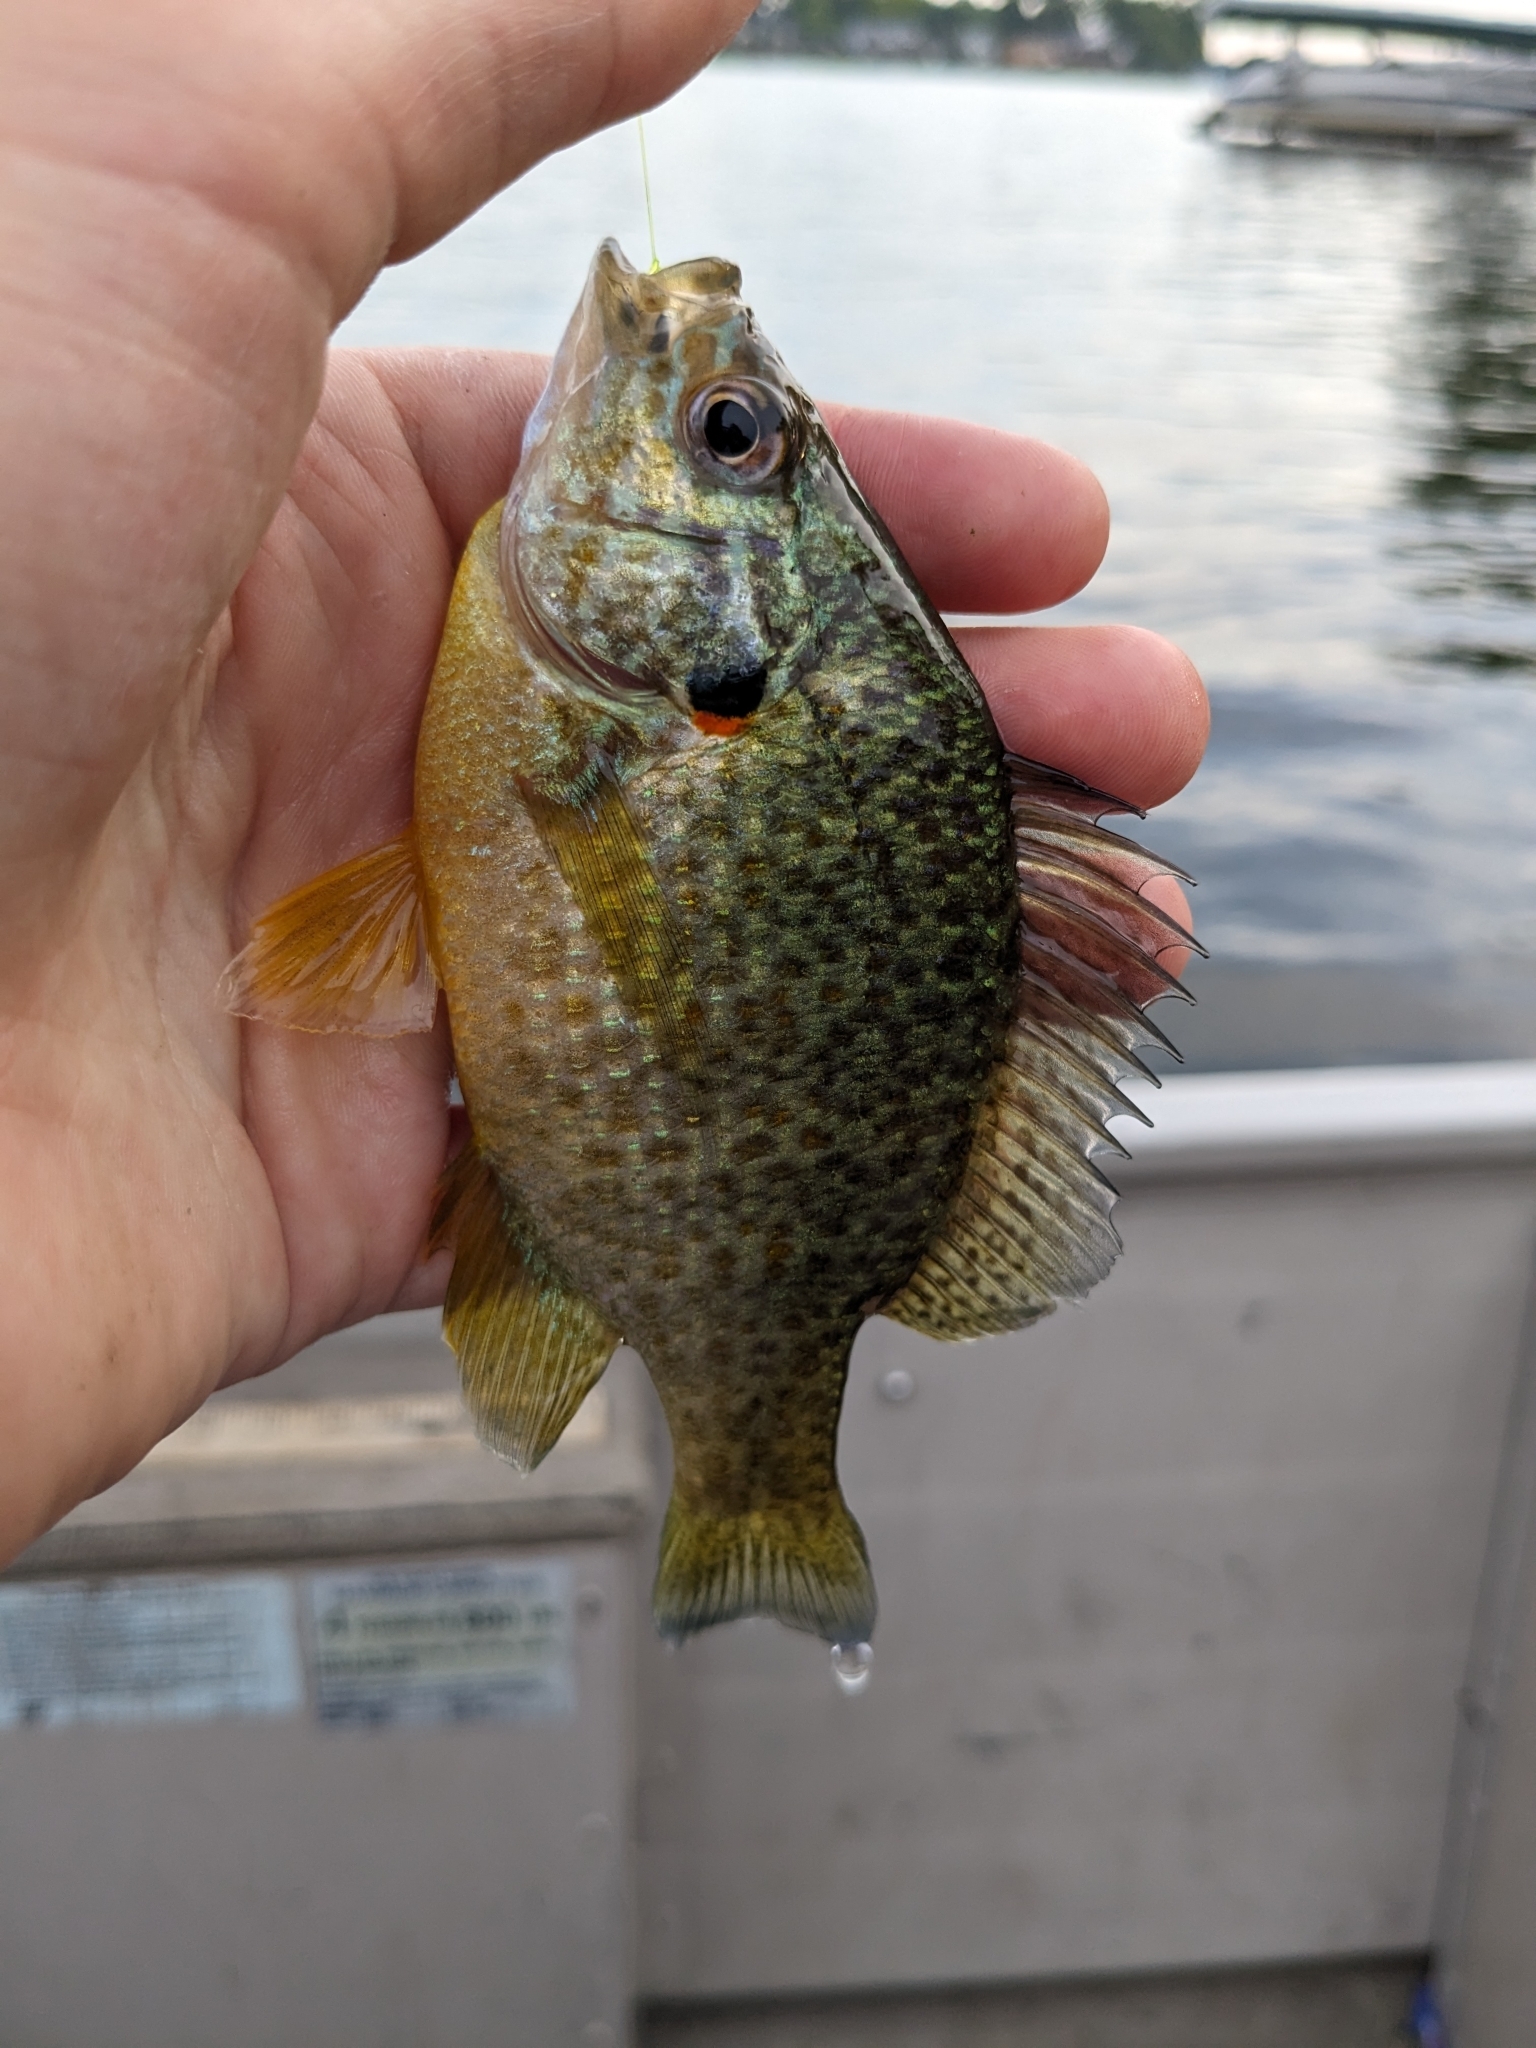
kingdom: Animalia
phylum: Chordata
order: Perciformes
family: Centrarchidae
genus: Lepomis
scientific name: Lepomis gibbosus
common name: Pumpkinseed
